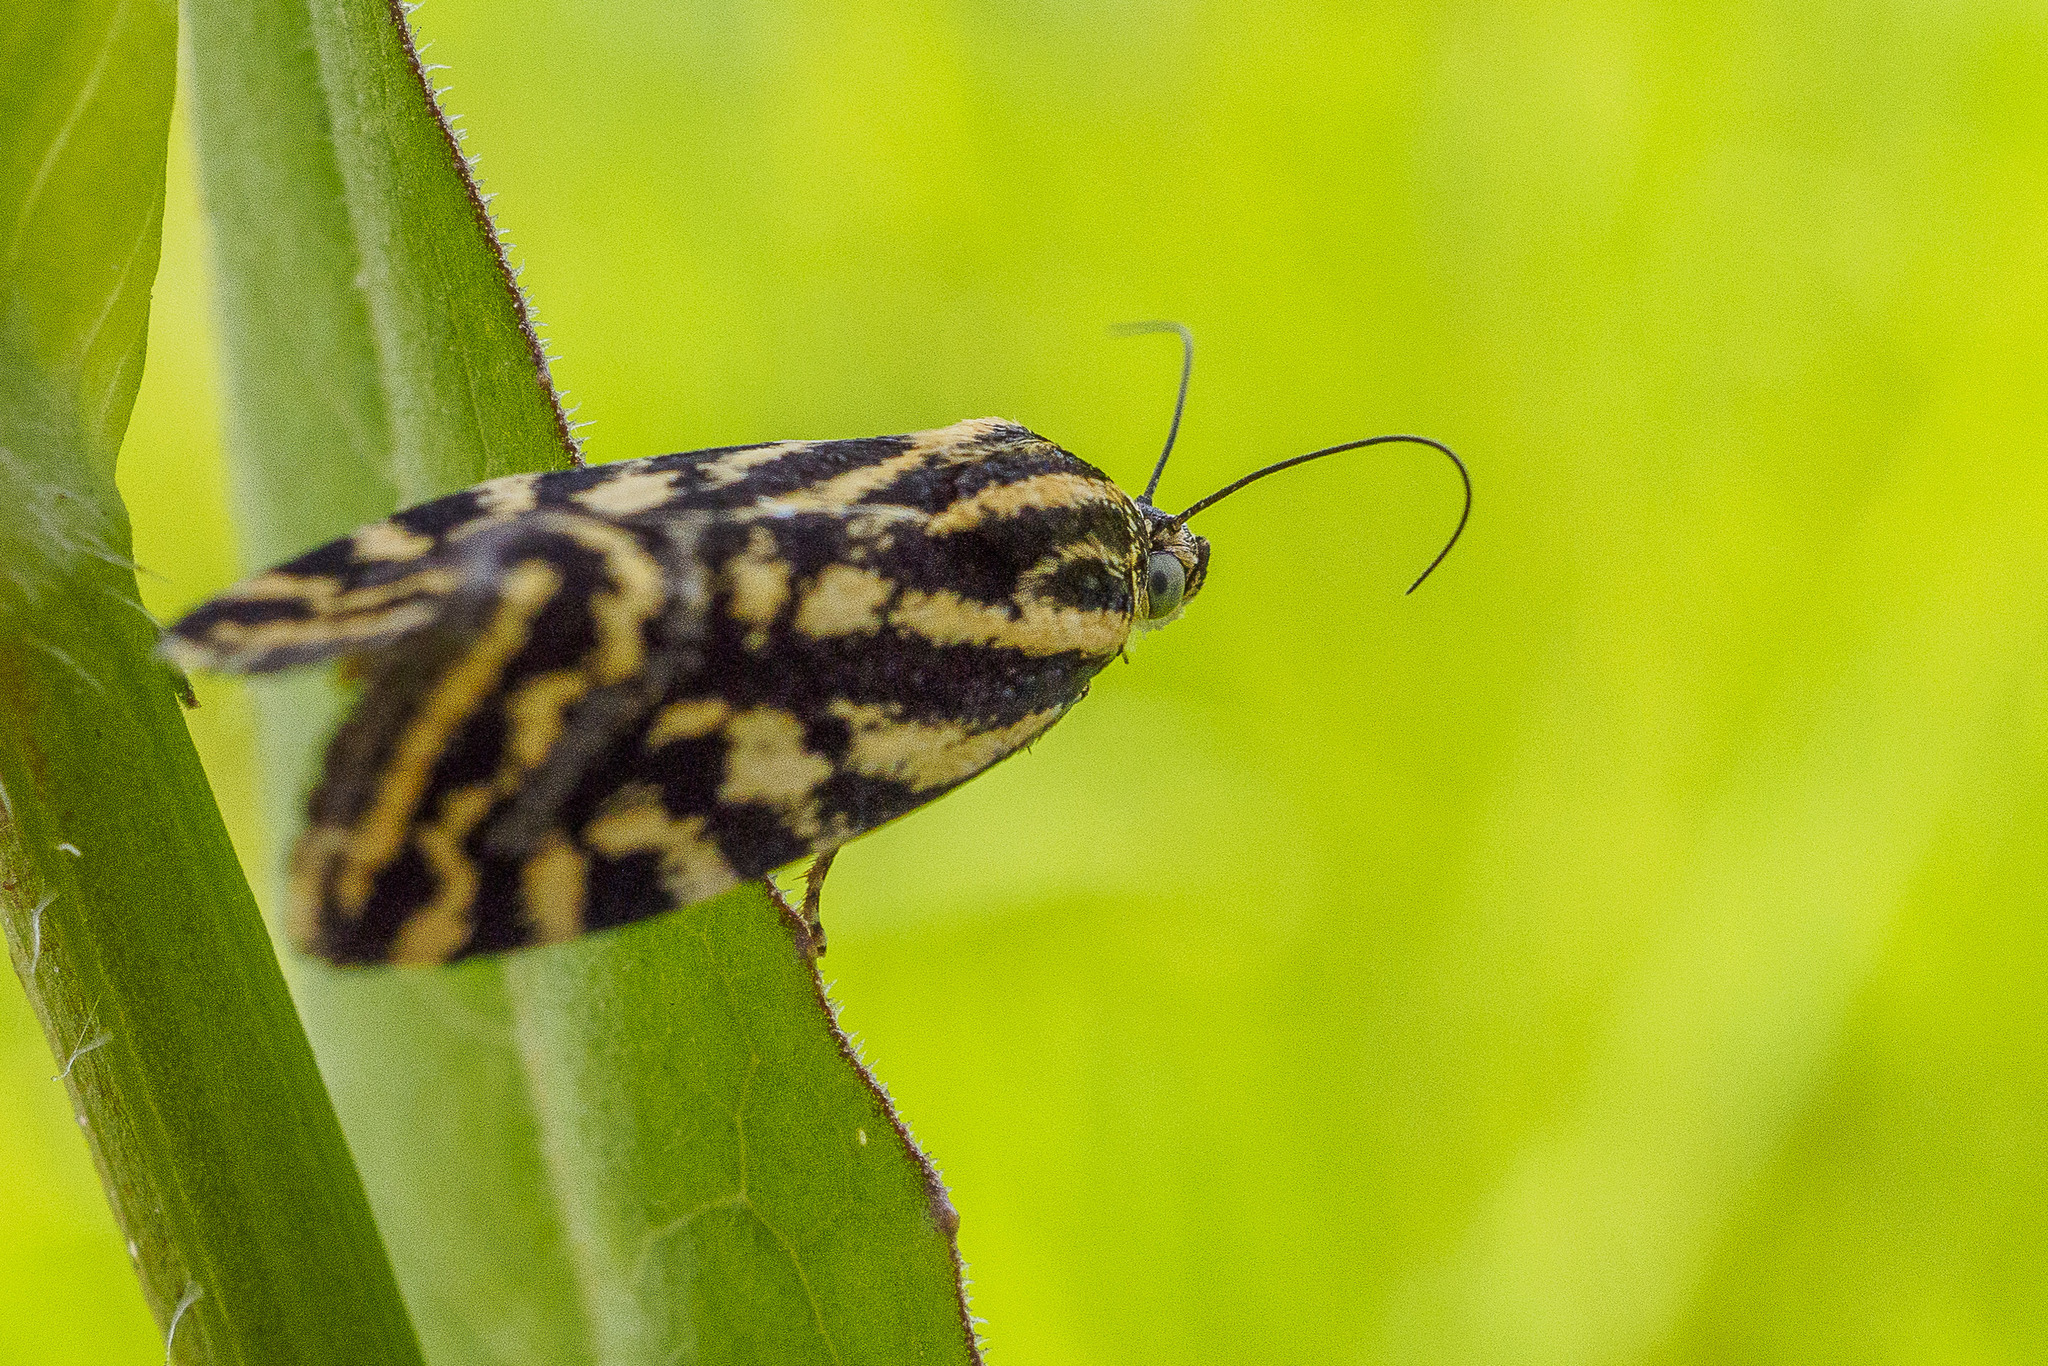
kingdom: Animalia
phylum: Arthropoda
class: Insecta
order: Lepidoptera
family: Noctuidae
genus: Acontia
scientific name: Acontia trabealis
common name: Spotted sulphur
